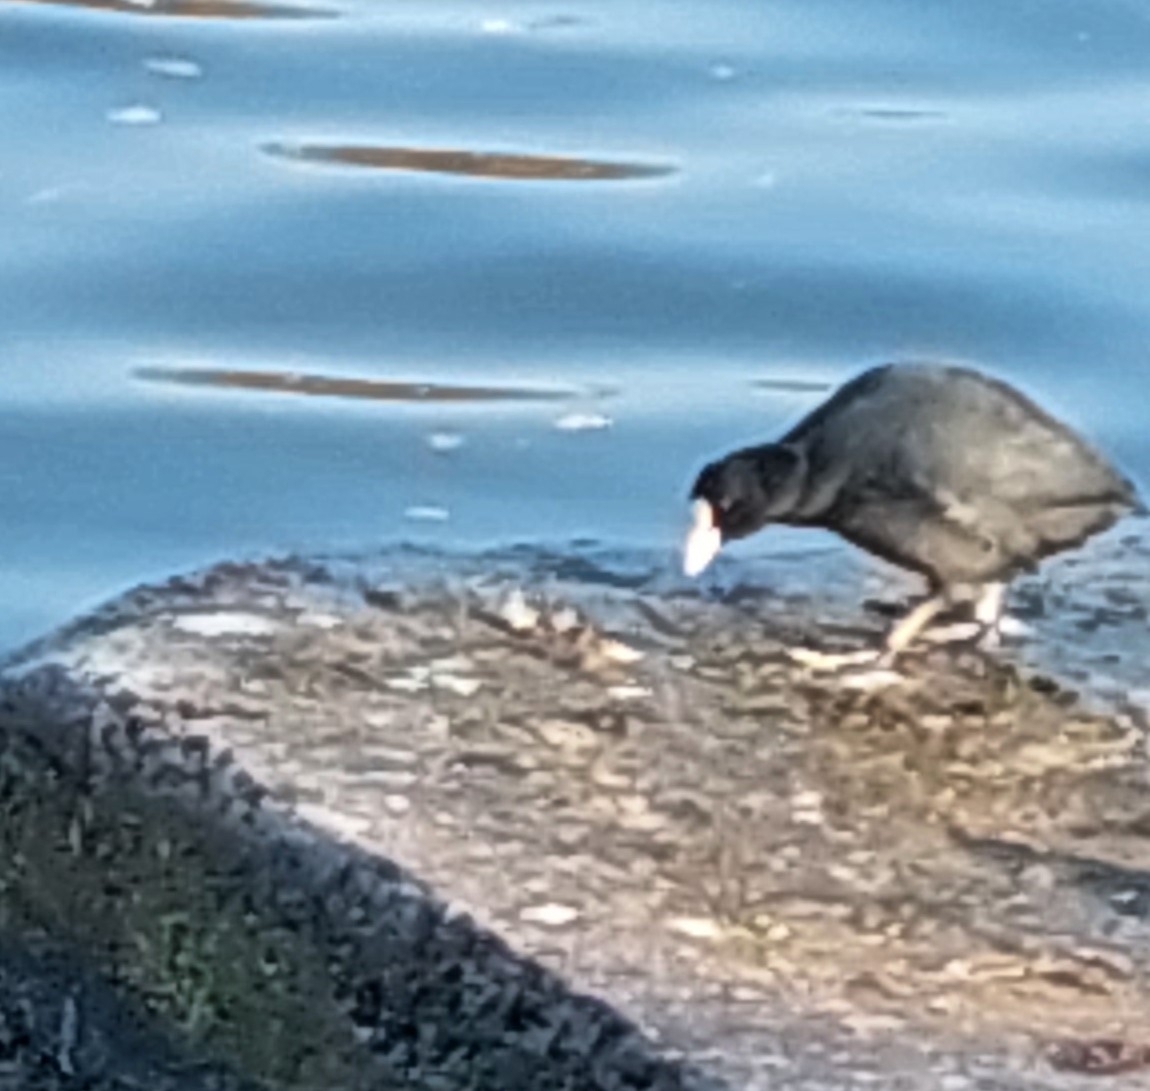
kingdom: Animalia
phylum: Chordata
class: Aves
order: Gruiformes
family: Rallidae
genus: Fulica
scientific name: Fulica atra
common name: Eurasian coot
